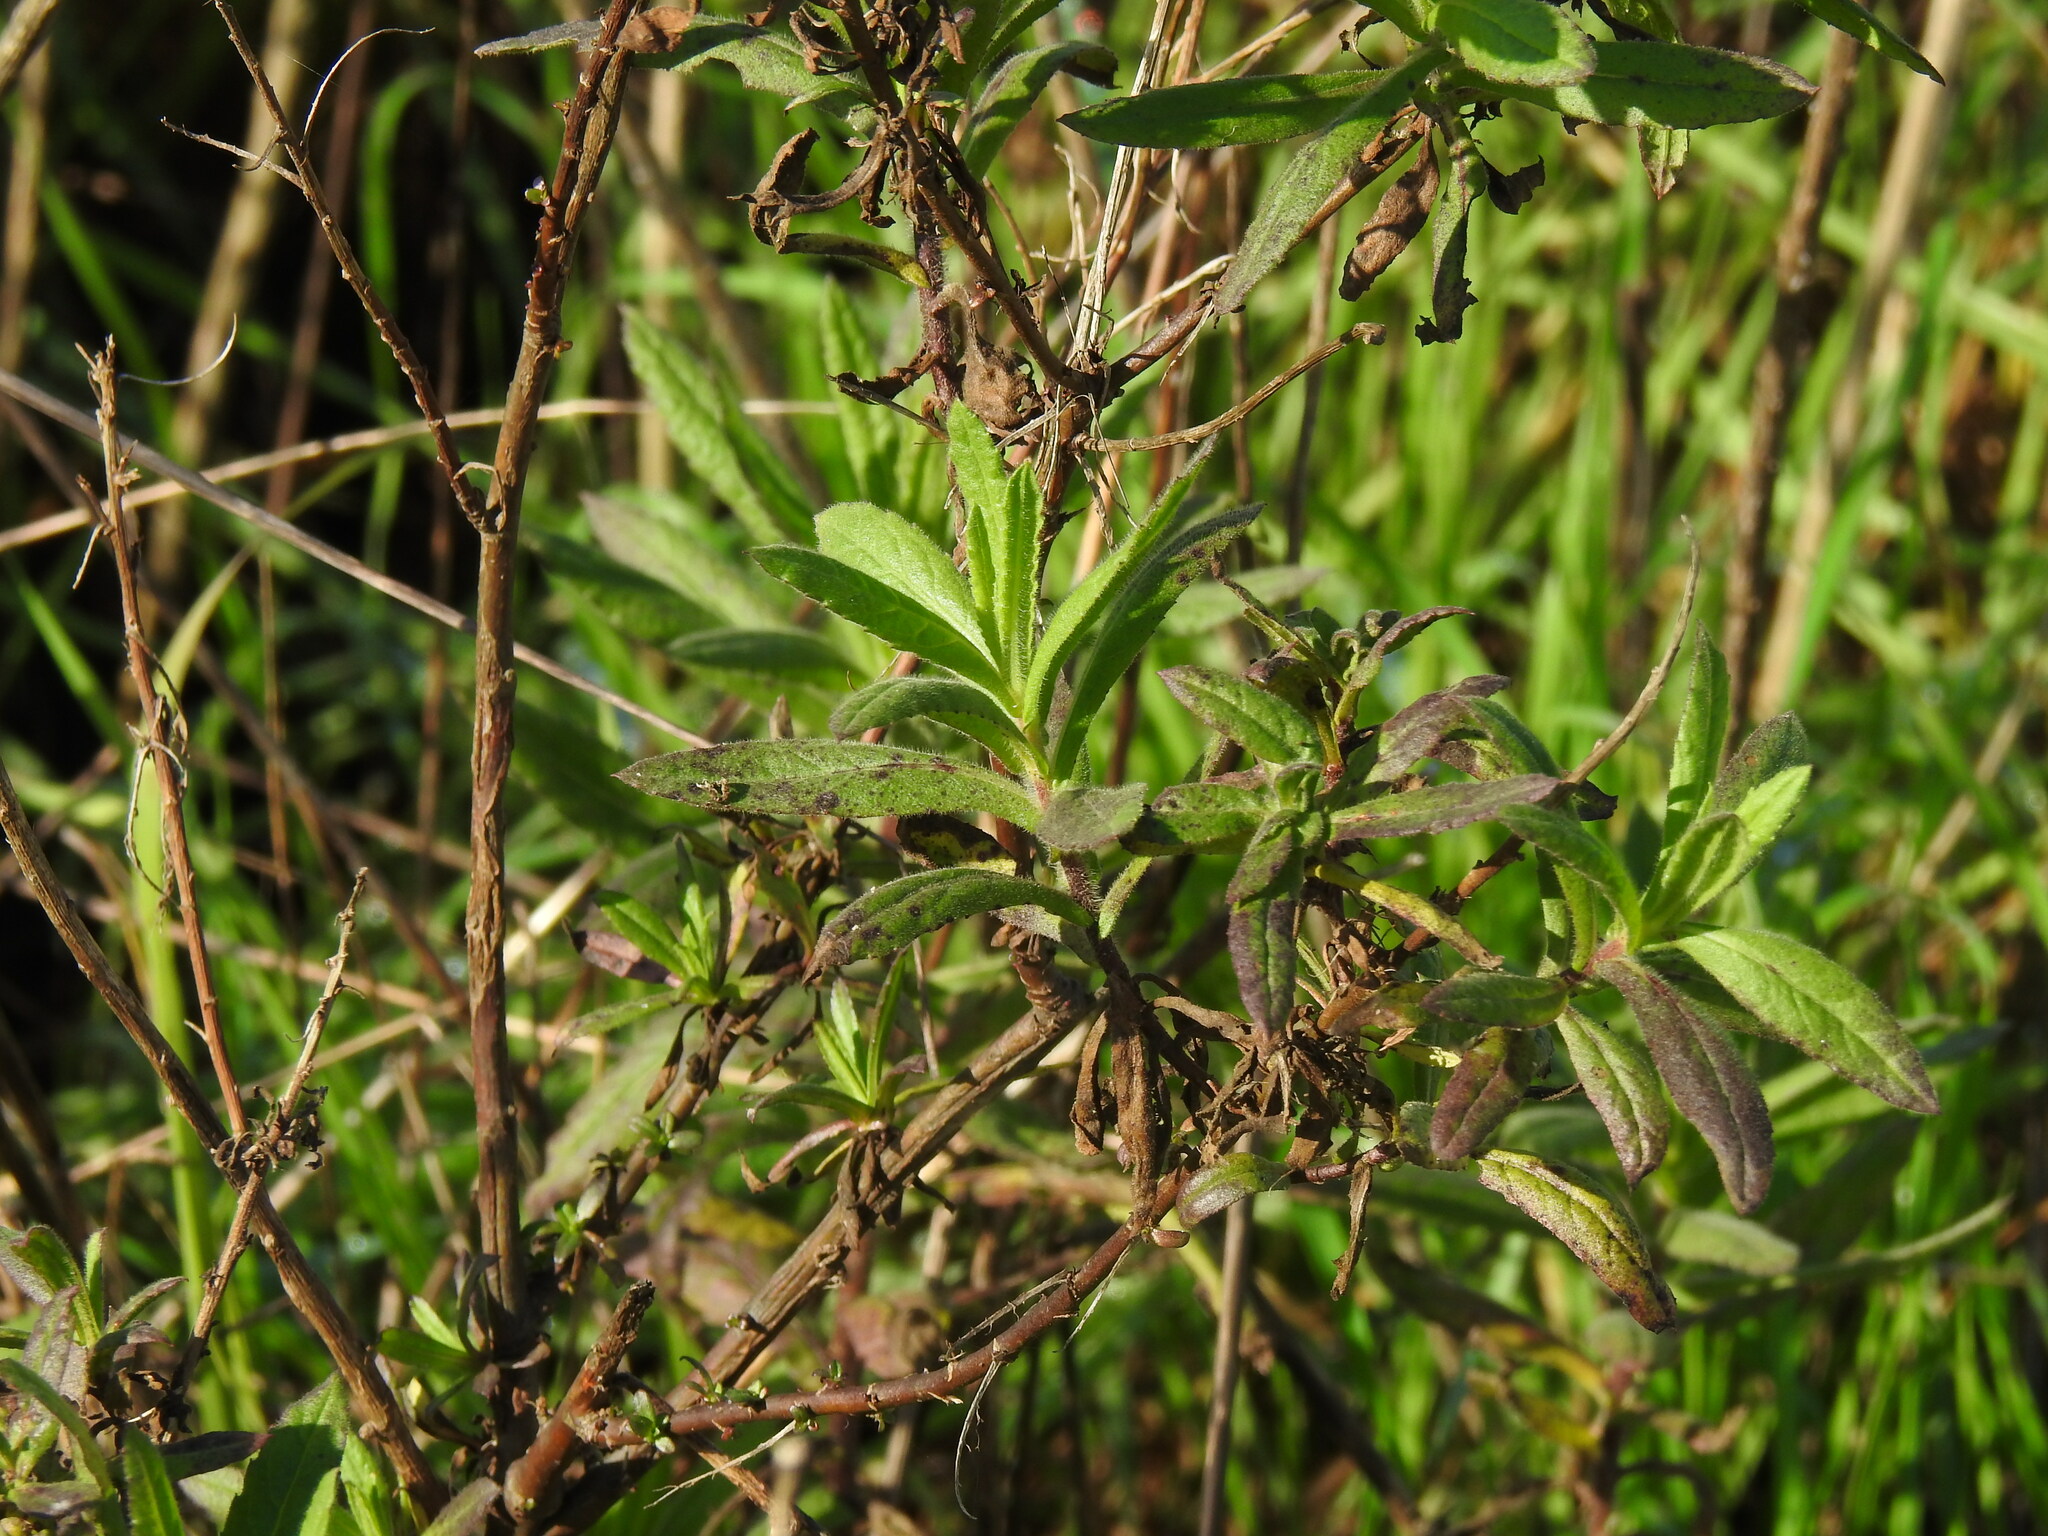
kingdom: Plantae
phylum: Tracheophyta
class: Magnoliopsida
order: Asterales
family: Asteraceae
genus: Dittrichia
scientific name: Dittrichia viscosa
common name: Woody fleabane
